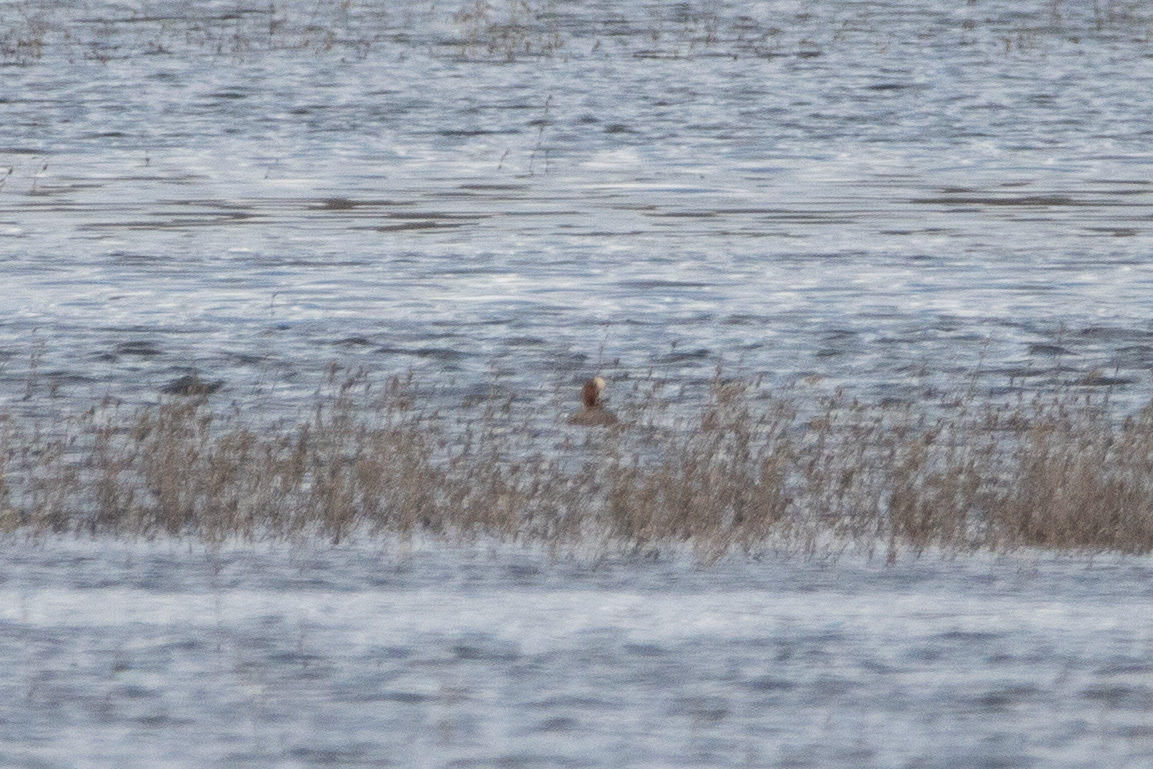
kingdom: Animalia
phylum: Chordata
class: Aves
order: Anseriformes
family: Anatidae
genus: Mareca
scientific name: Mareca penelope
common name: Eurasian wigeon
